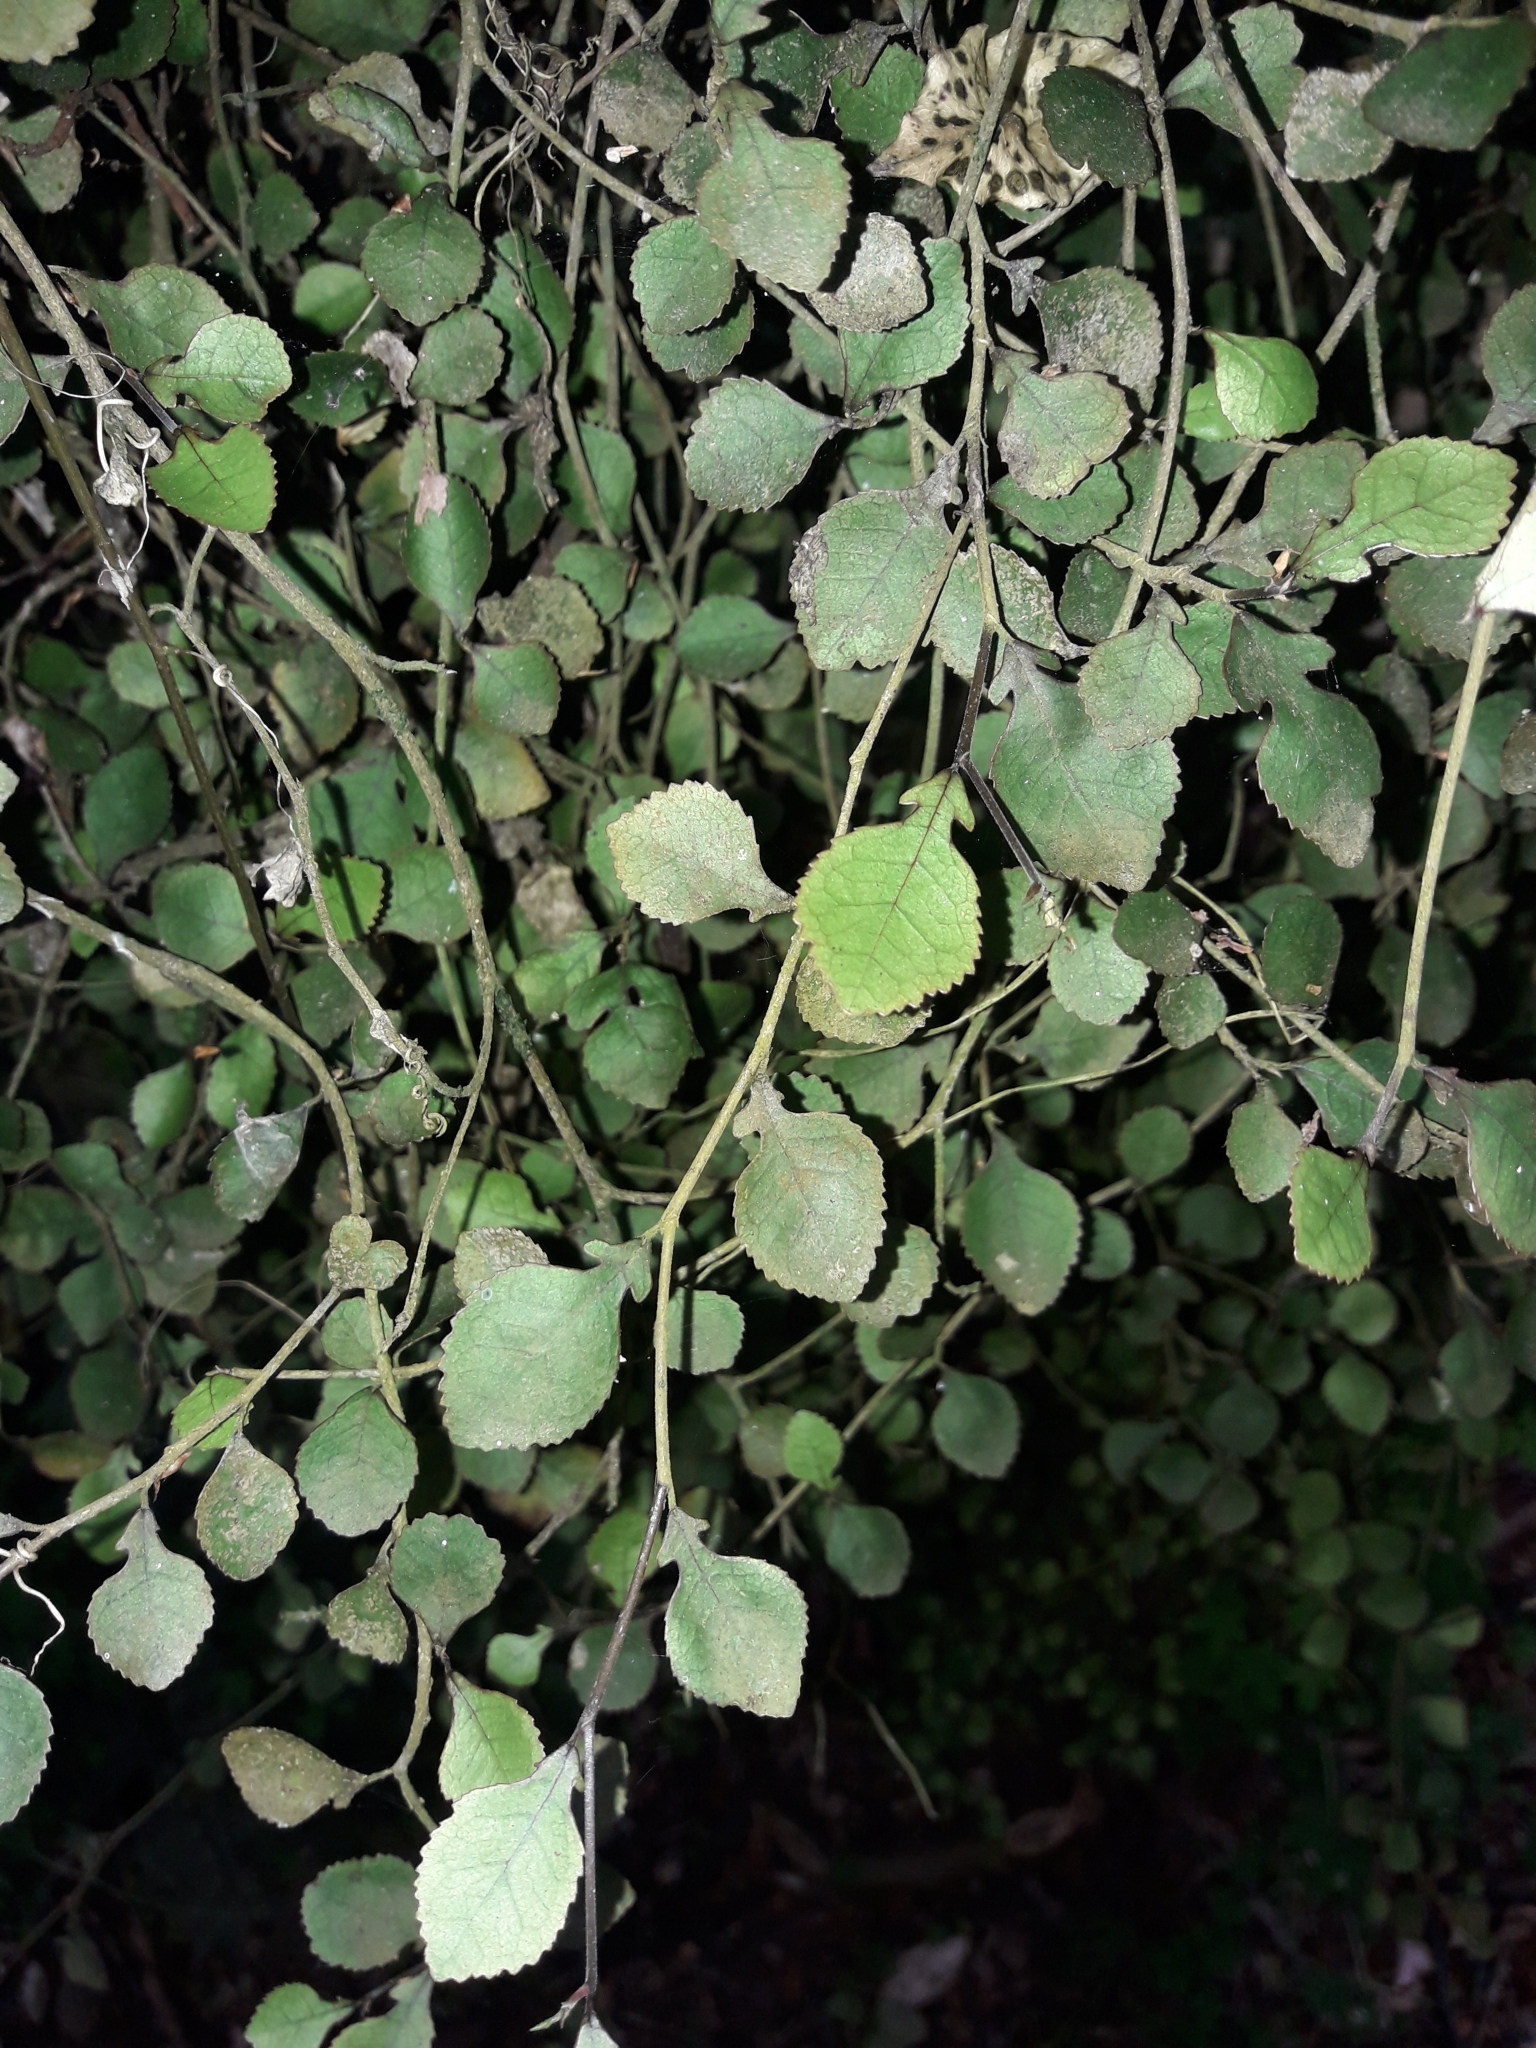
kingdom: Plantae
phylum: Tracheophyta
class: Magnoliopsida
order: Rosales
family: Moraceae
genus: Paratrophis
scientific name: Paratrophis microphylla
